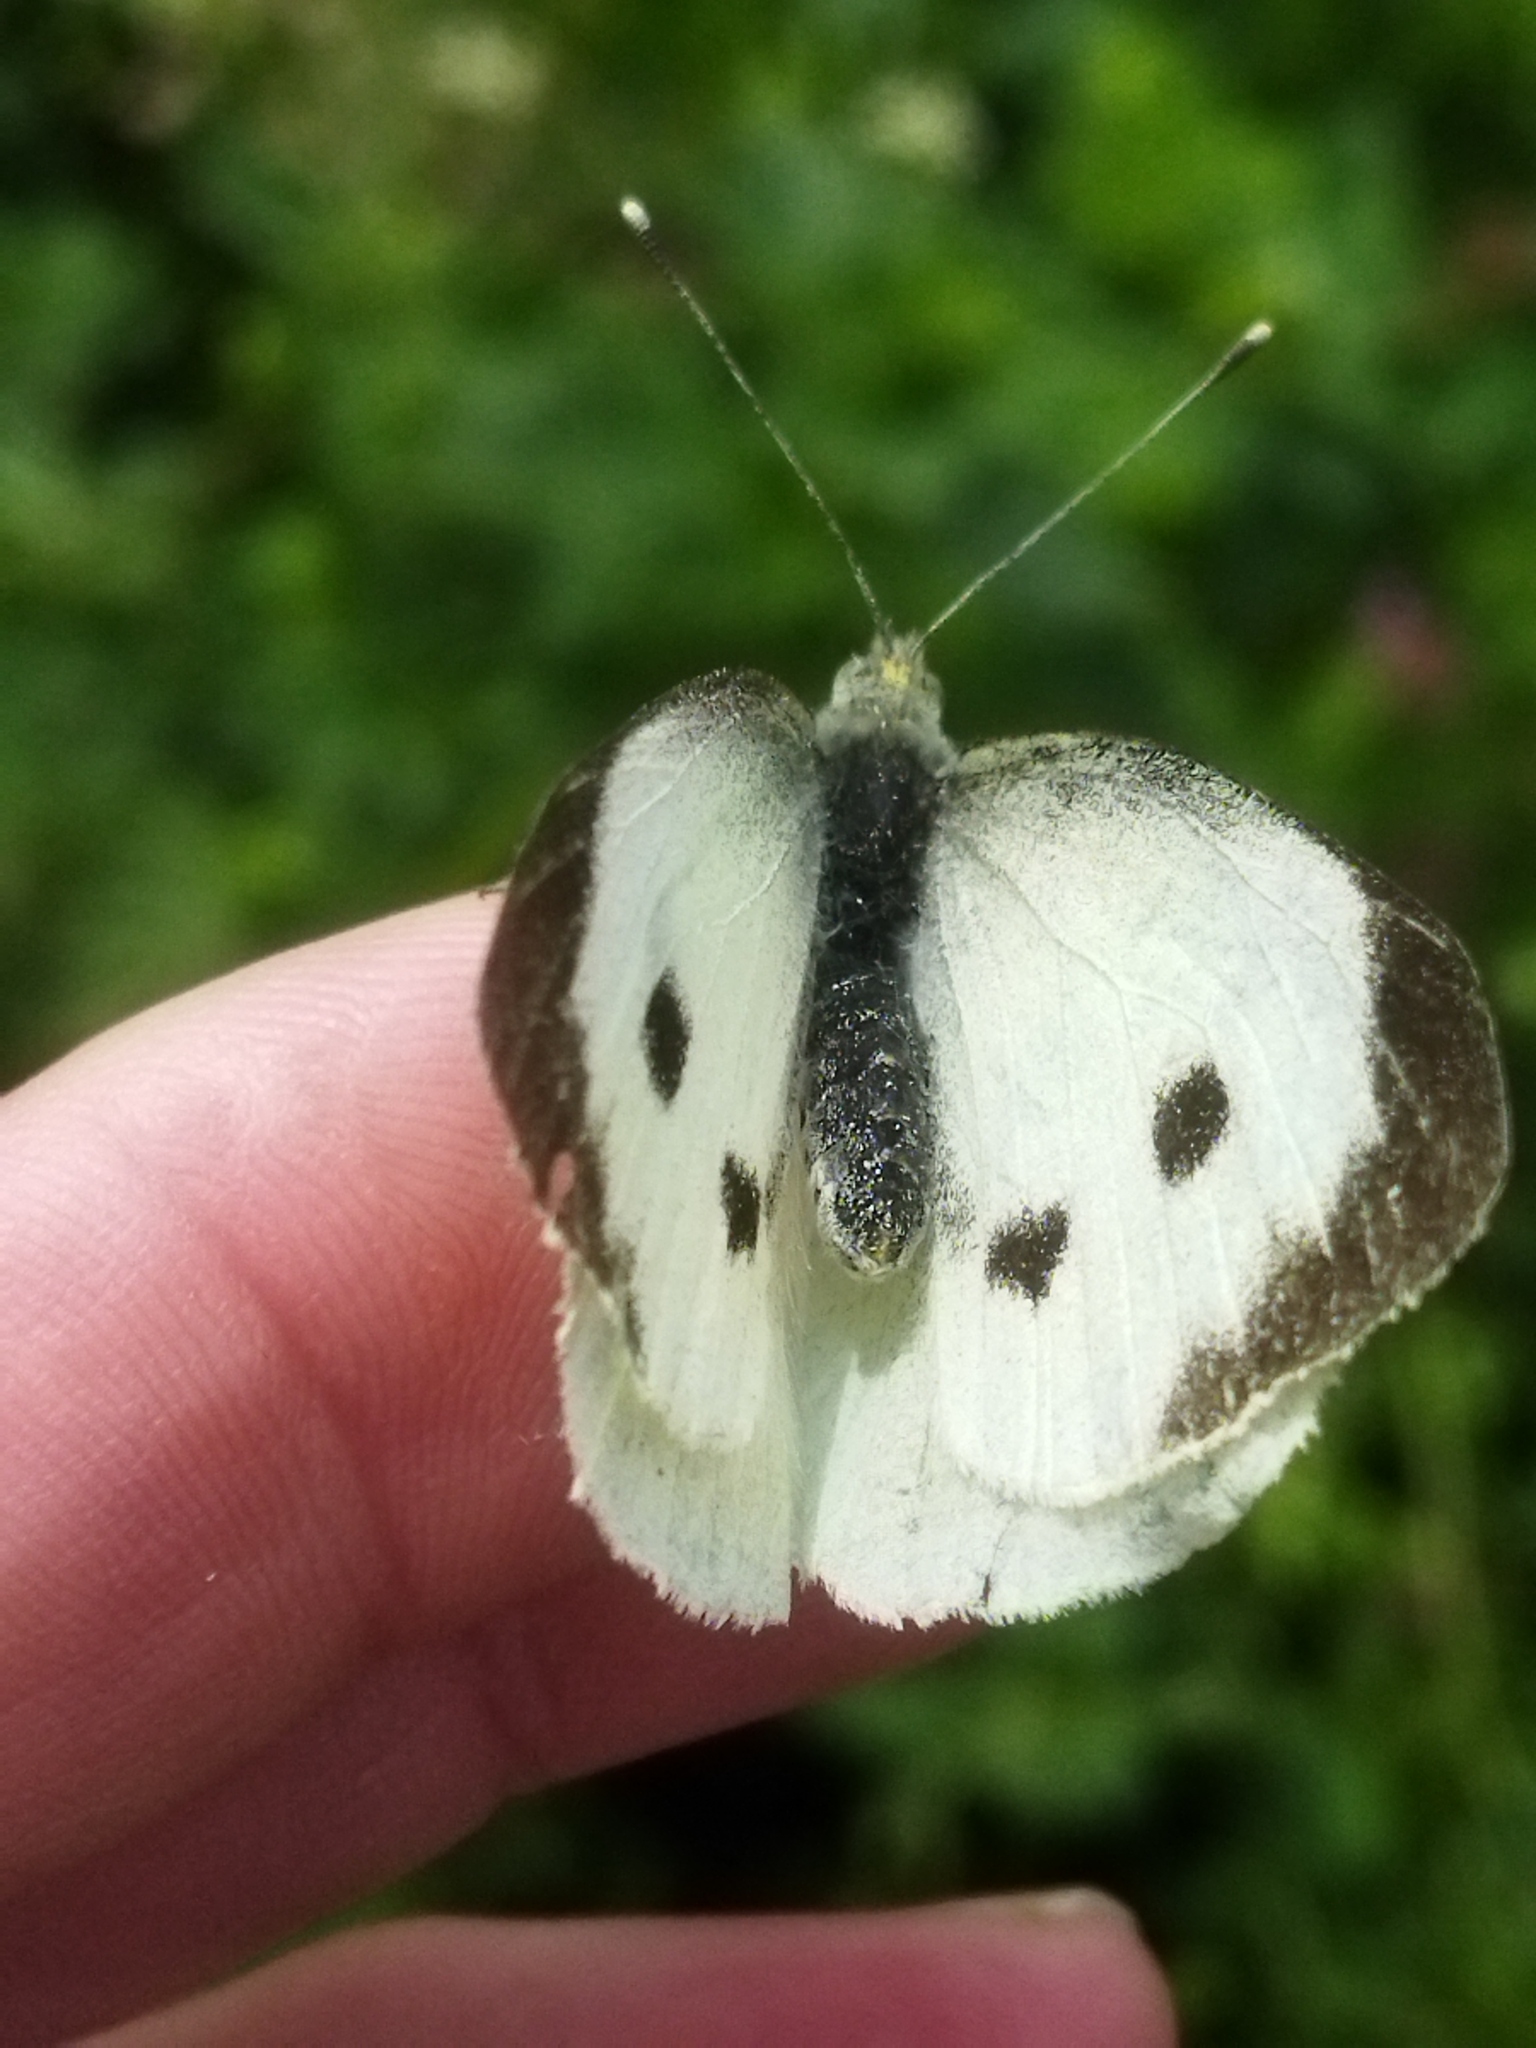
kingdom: Animalia
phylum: Arthropoda
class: Insecta
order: Lepidoptera
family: Pieridae
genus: Pieris
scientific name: Pieris brassicae
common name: Large white
